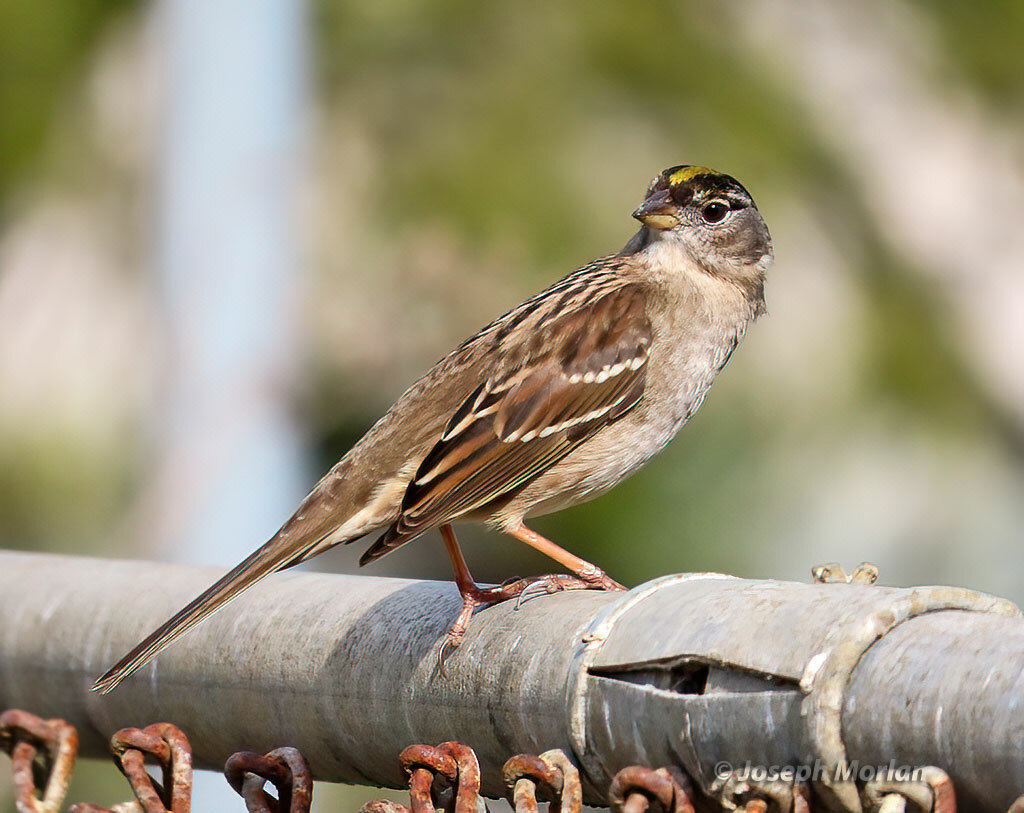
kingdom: Animalia
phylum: Chordata
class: Aves
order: Passeriformes
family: Passerellidae
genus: Zonotrichia
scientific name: Zonotrichia atricapilla
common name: Golden-crowned sparrow
